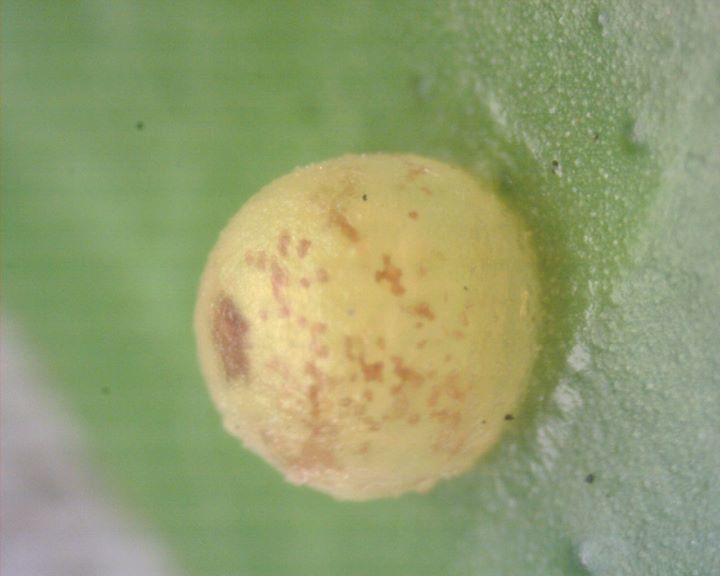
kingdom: Animalia
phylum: Arthropoda
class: Insecta
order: Lepidoptera
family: Papilionidae
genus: Papilio
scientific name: Papilio demoleus
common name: Lime butterfly
